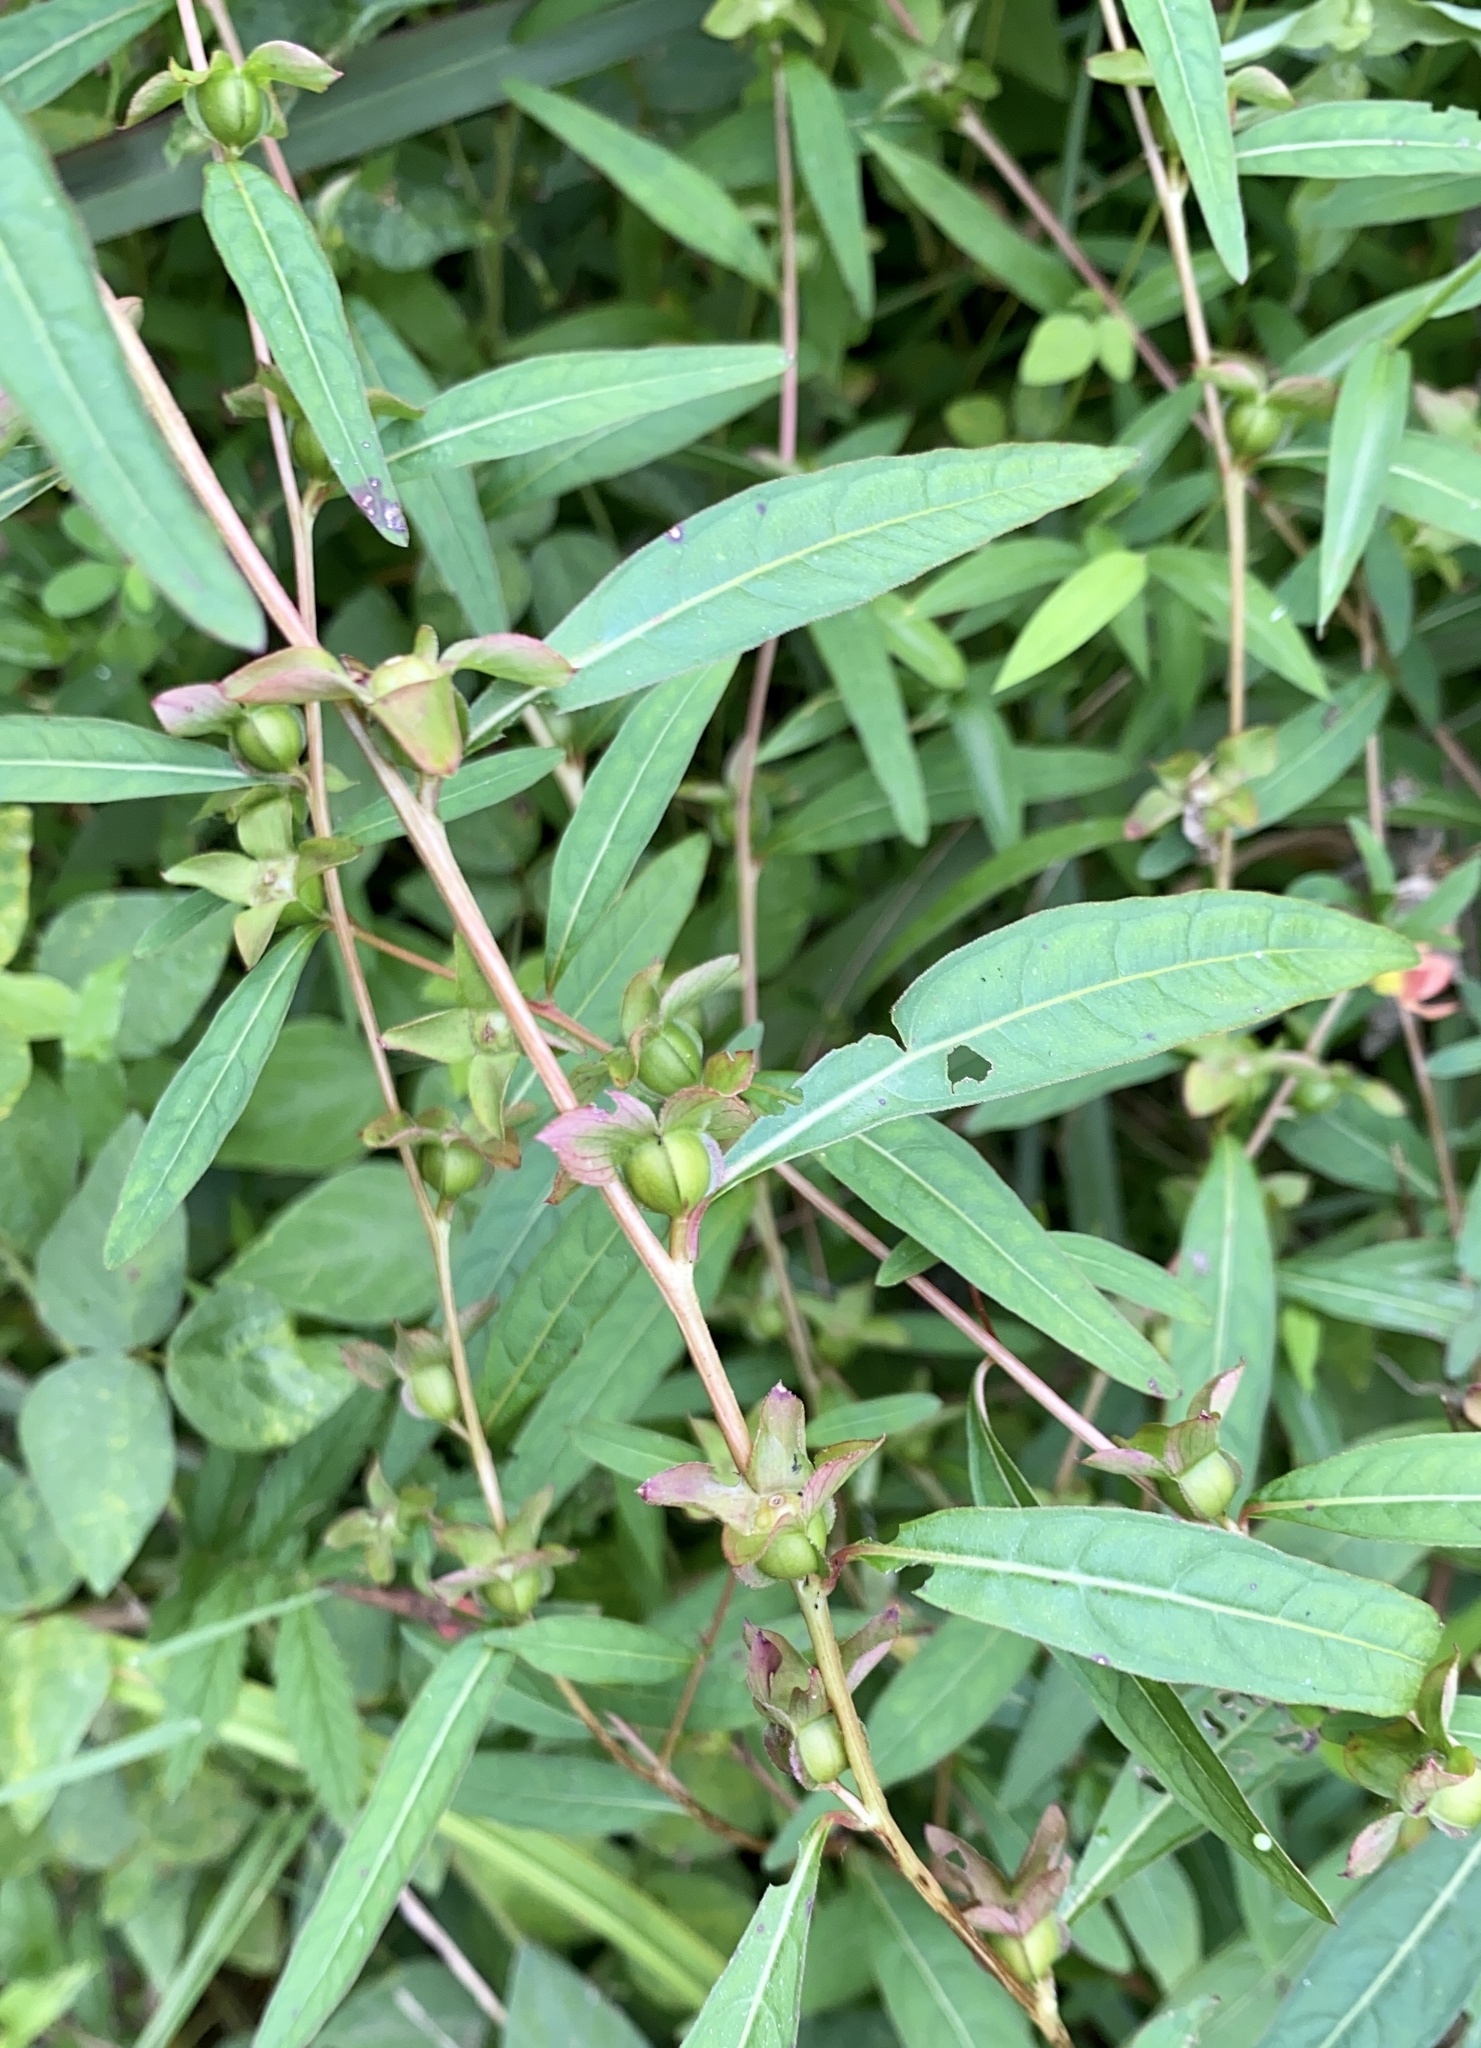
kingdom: Plantae
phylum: Tracheophyta
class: Magnoliopsida
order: Myrtales
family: Onagraceae
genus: Ludwigia
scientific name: Ludwigia alternifolia
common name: Rattlebox
